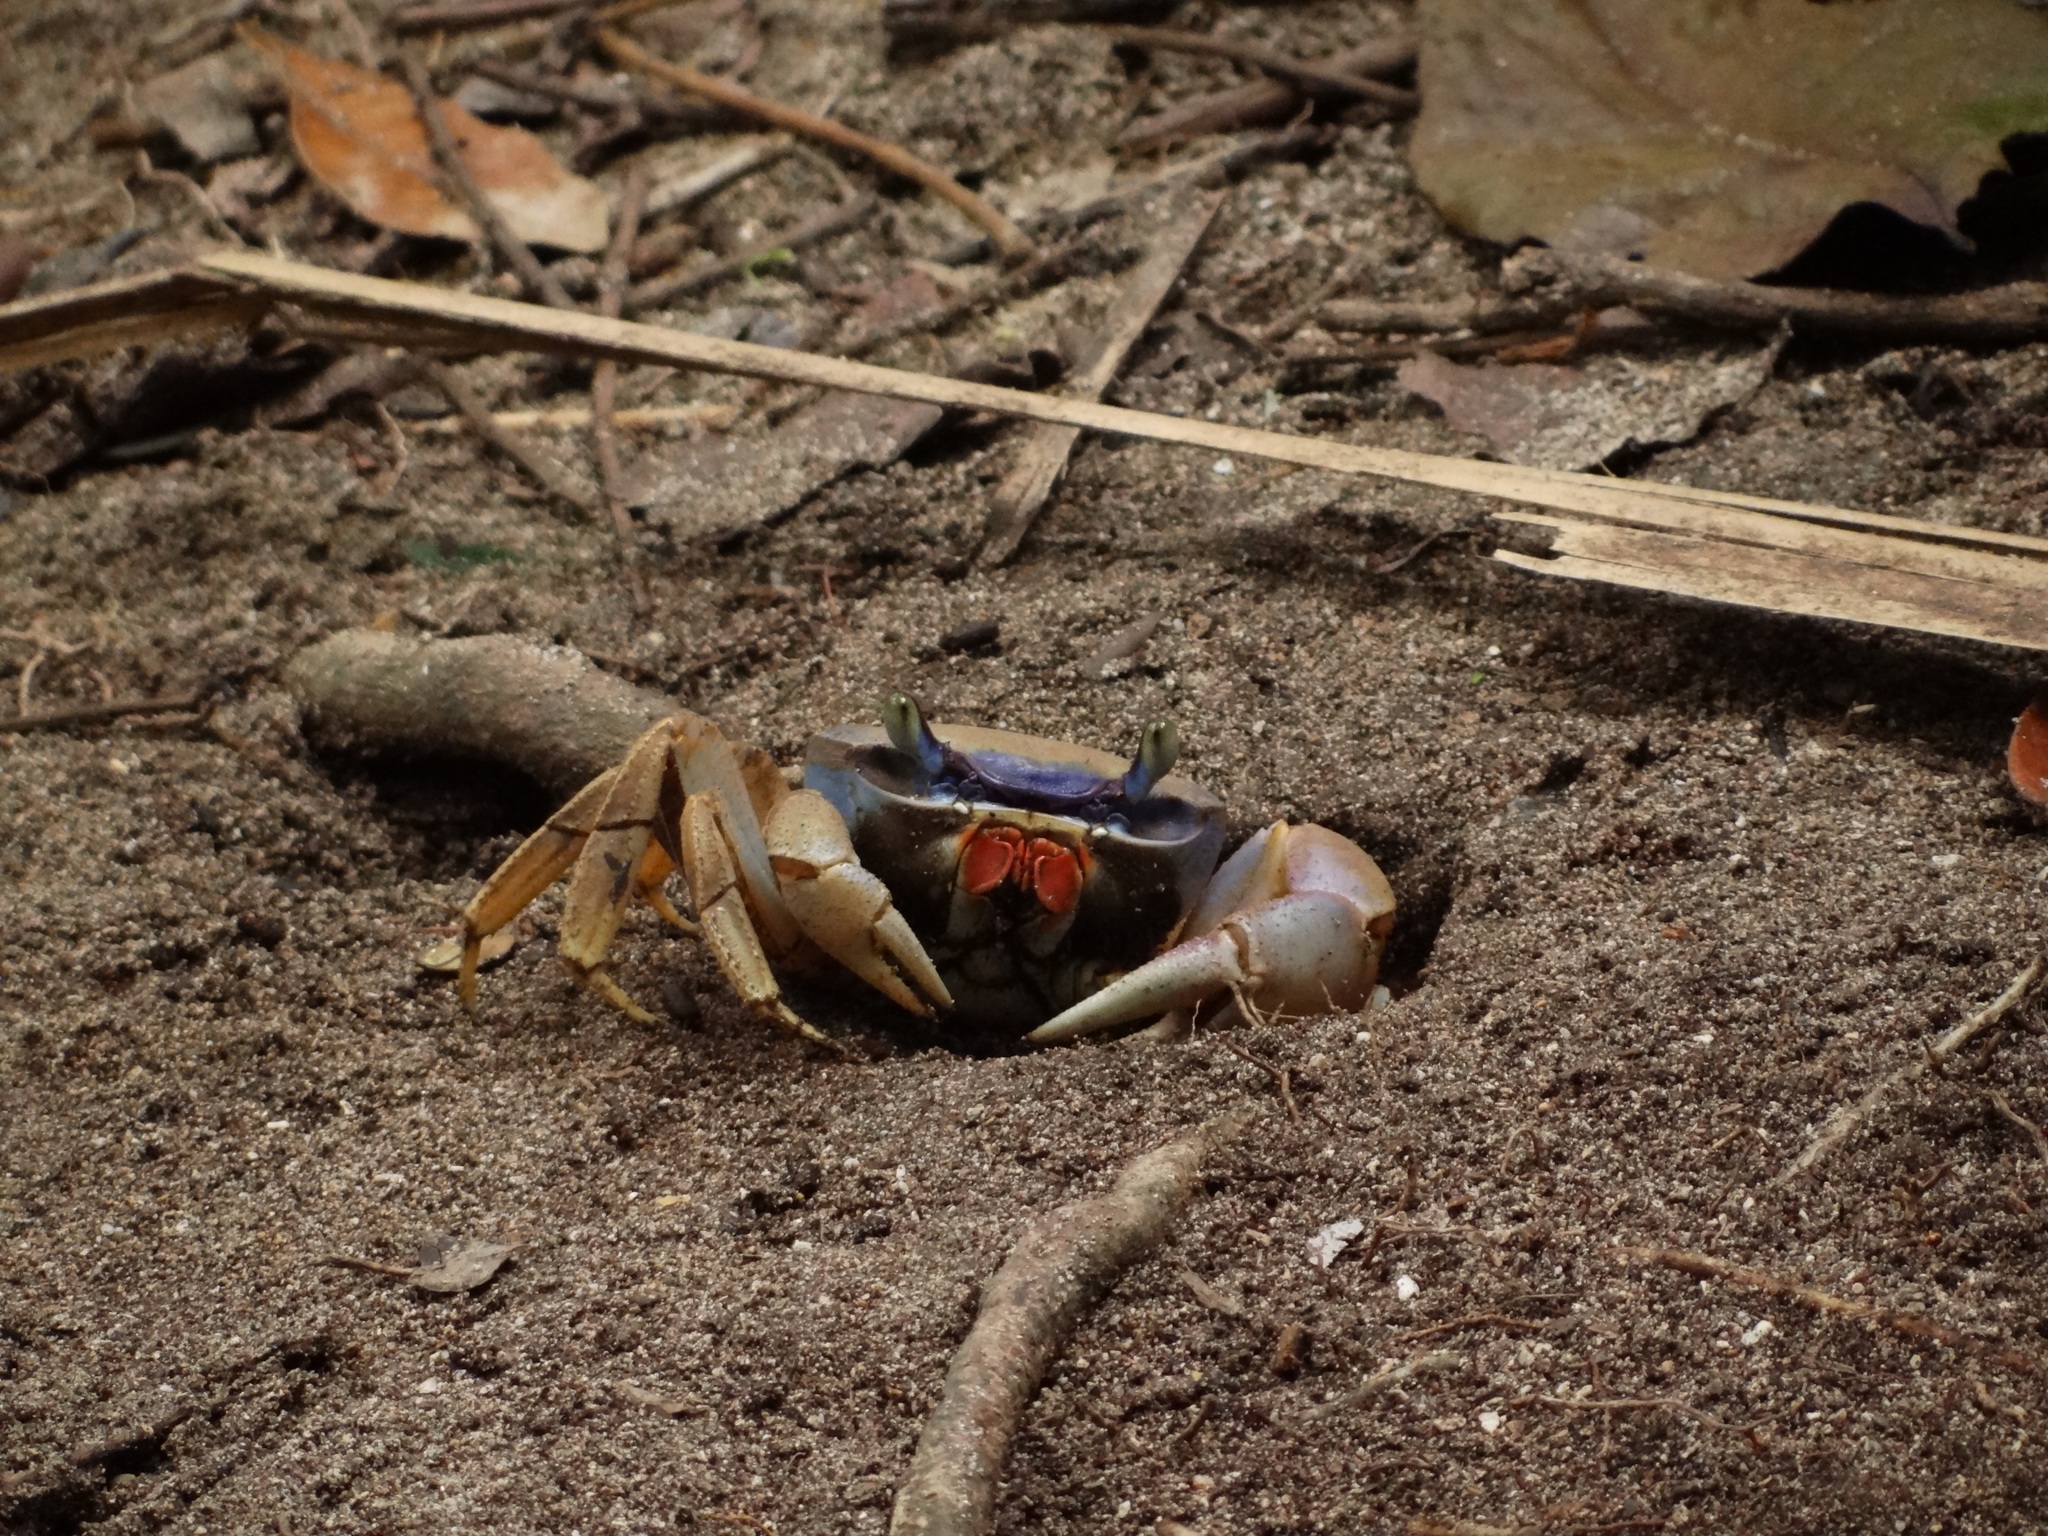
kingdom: Animalia
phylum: Arthropoda
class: Malacostraca
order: Decapoda
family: Gecarcinidae
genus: Cardisoma
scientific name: Cardisoma guanhumi
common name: Great land crab
